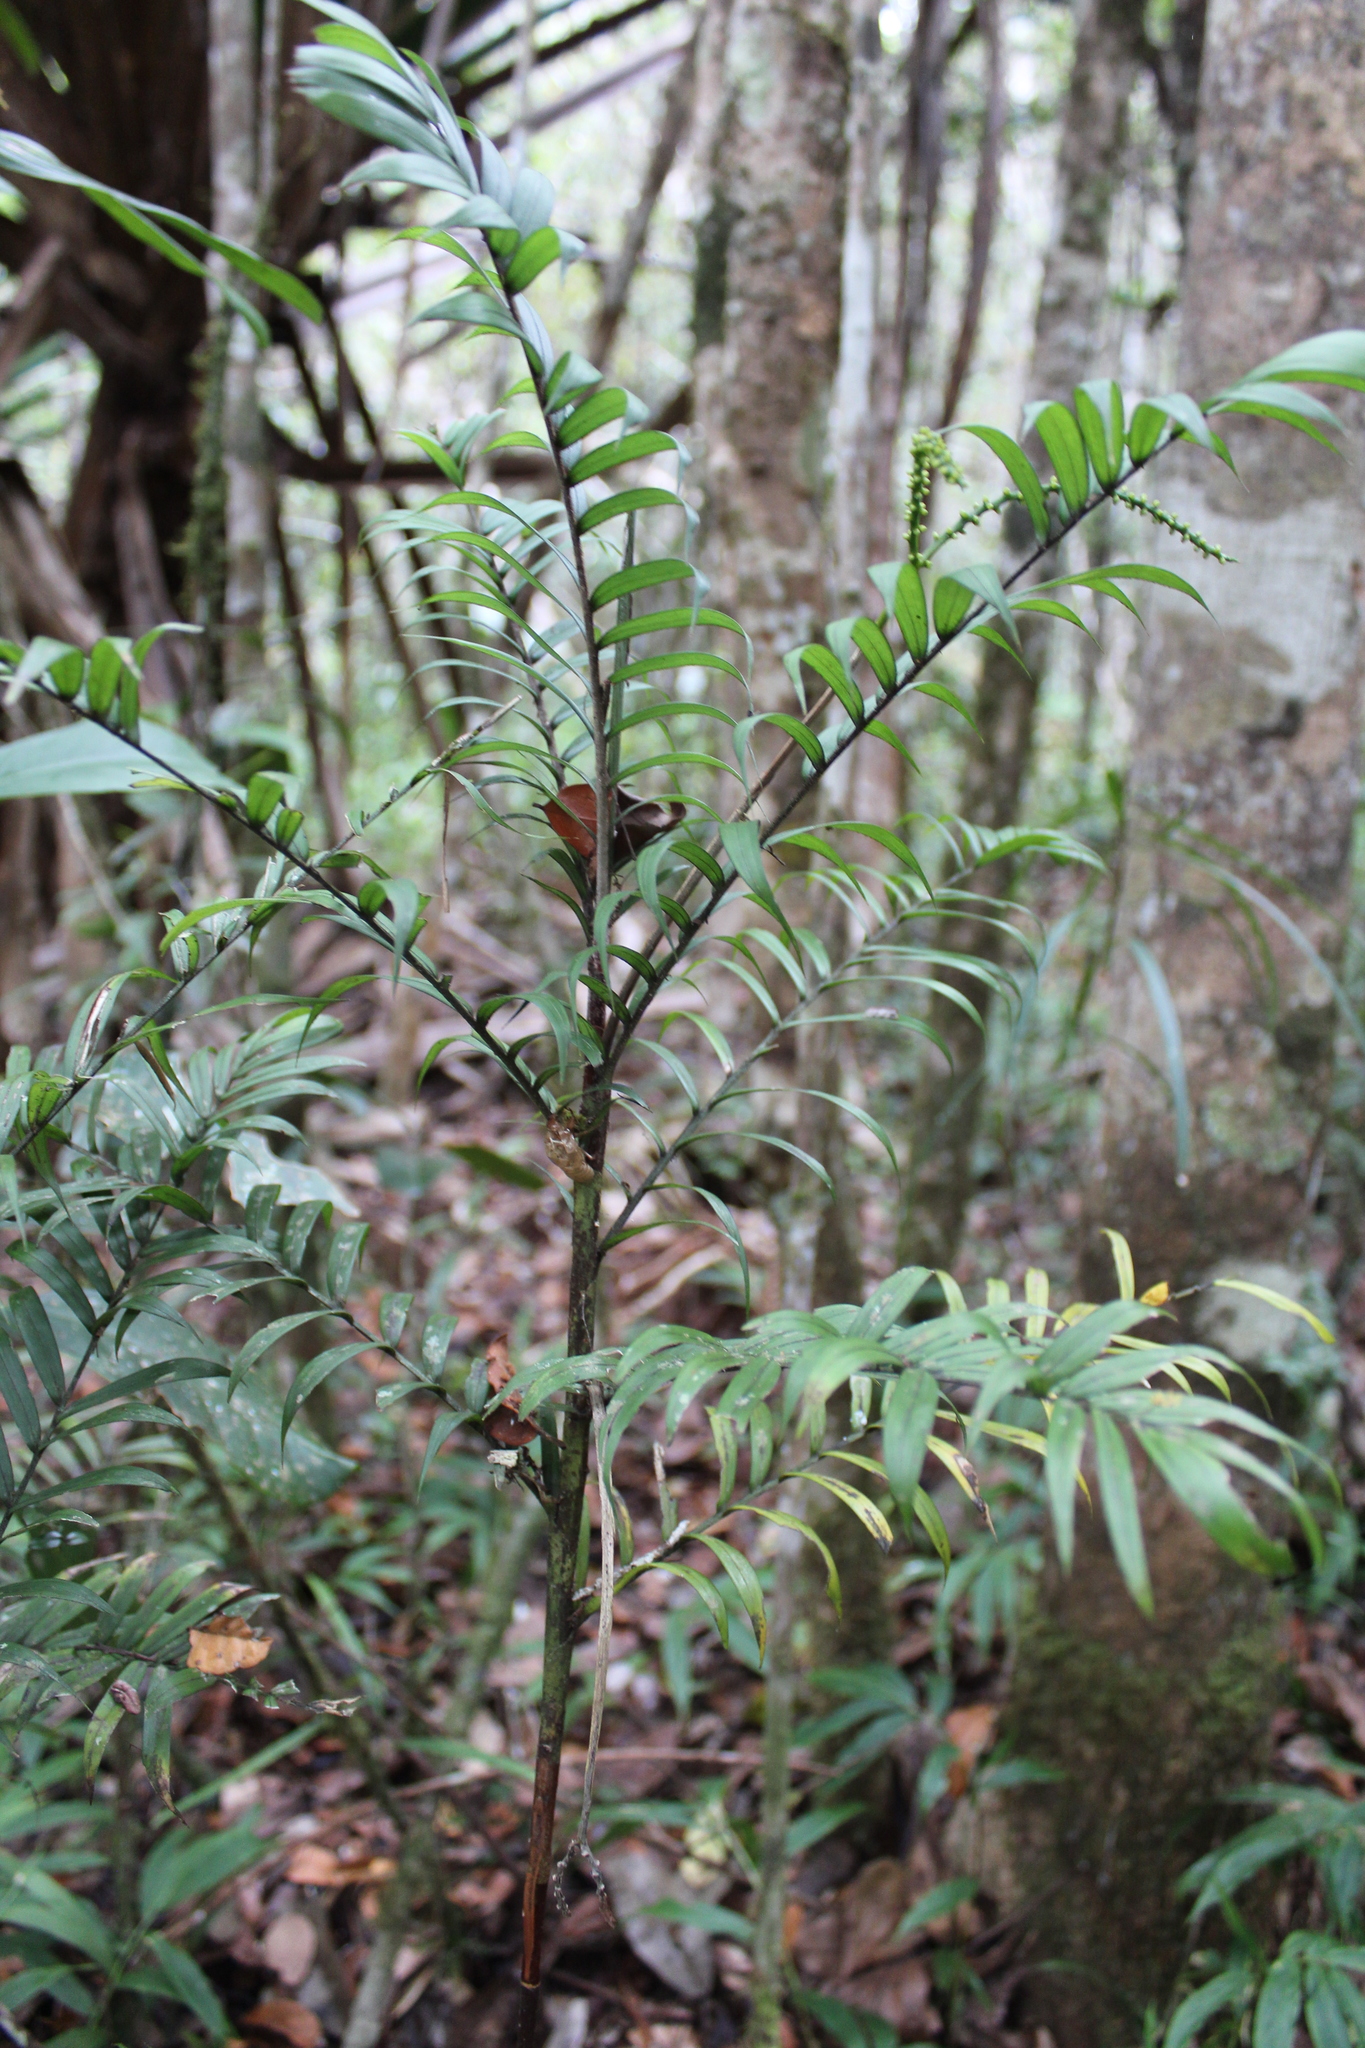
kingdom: Plantae
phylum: Tracheophyta
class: Liliopsida
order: Arecales
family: Arecaceae
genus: Dypsis
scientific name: Dypsis concinna
